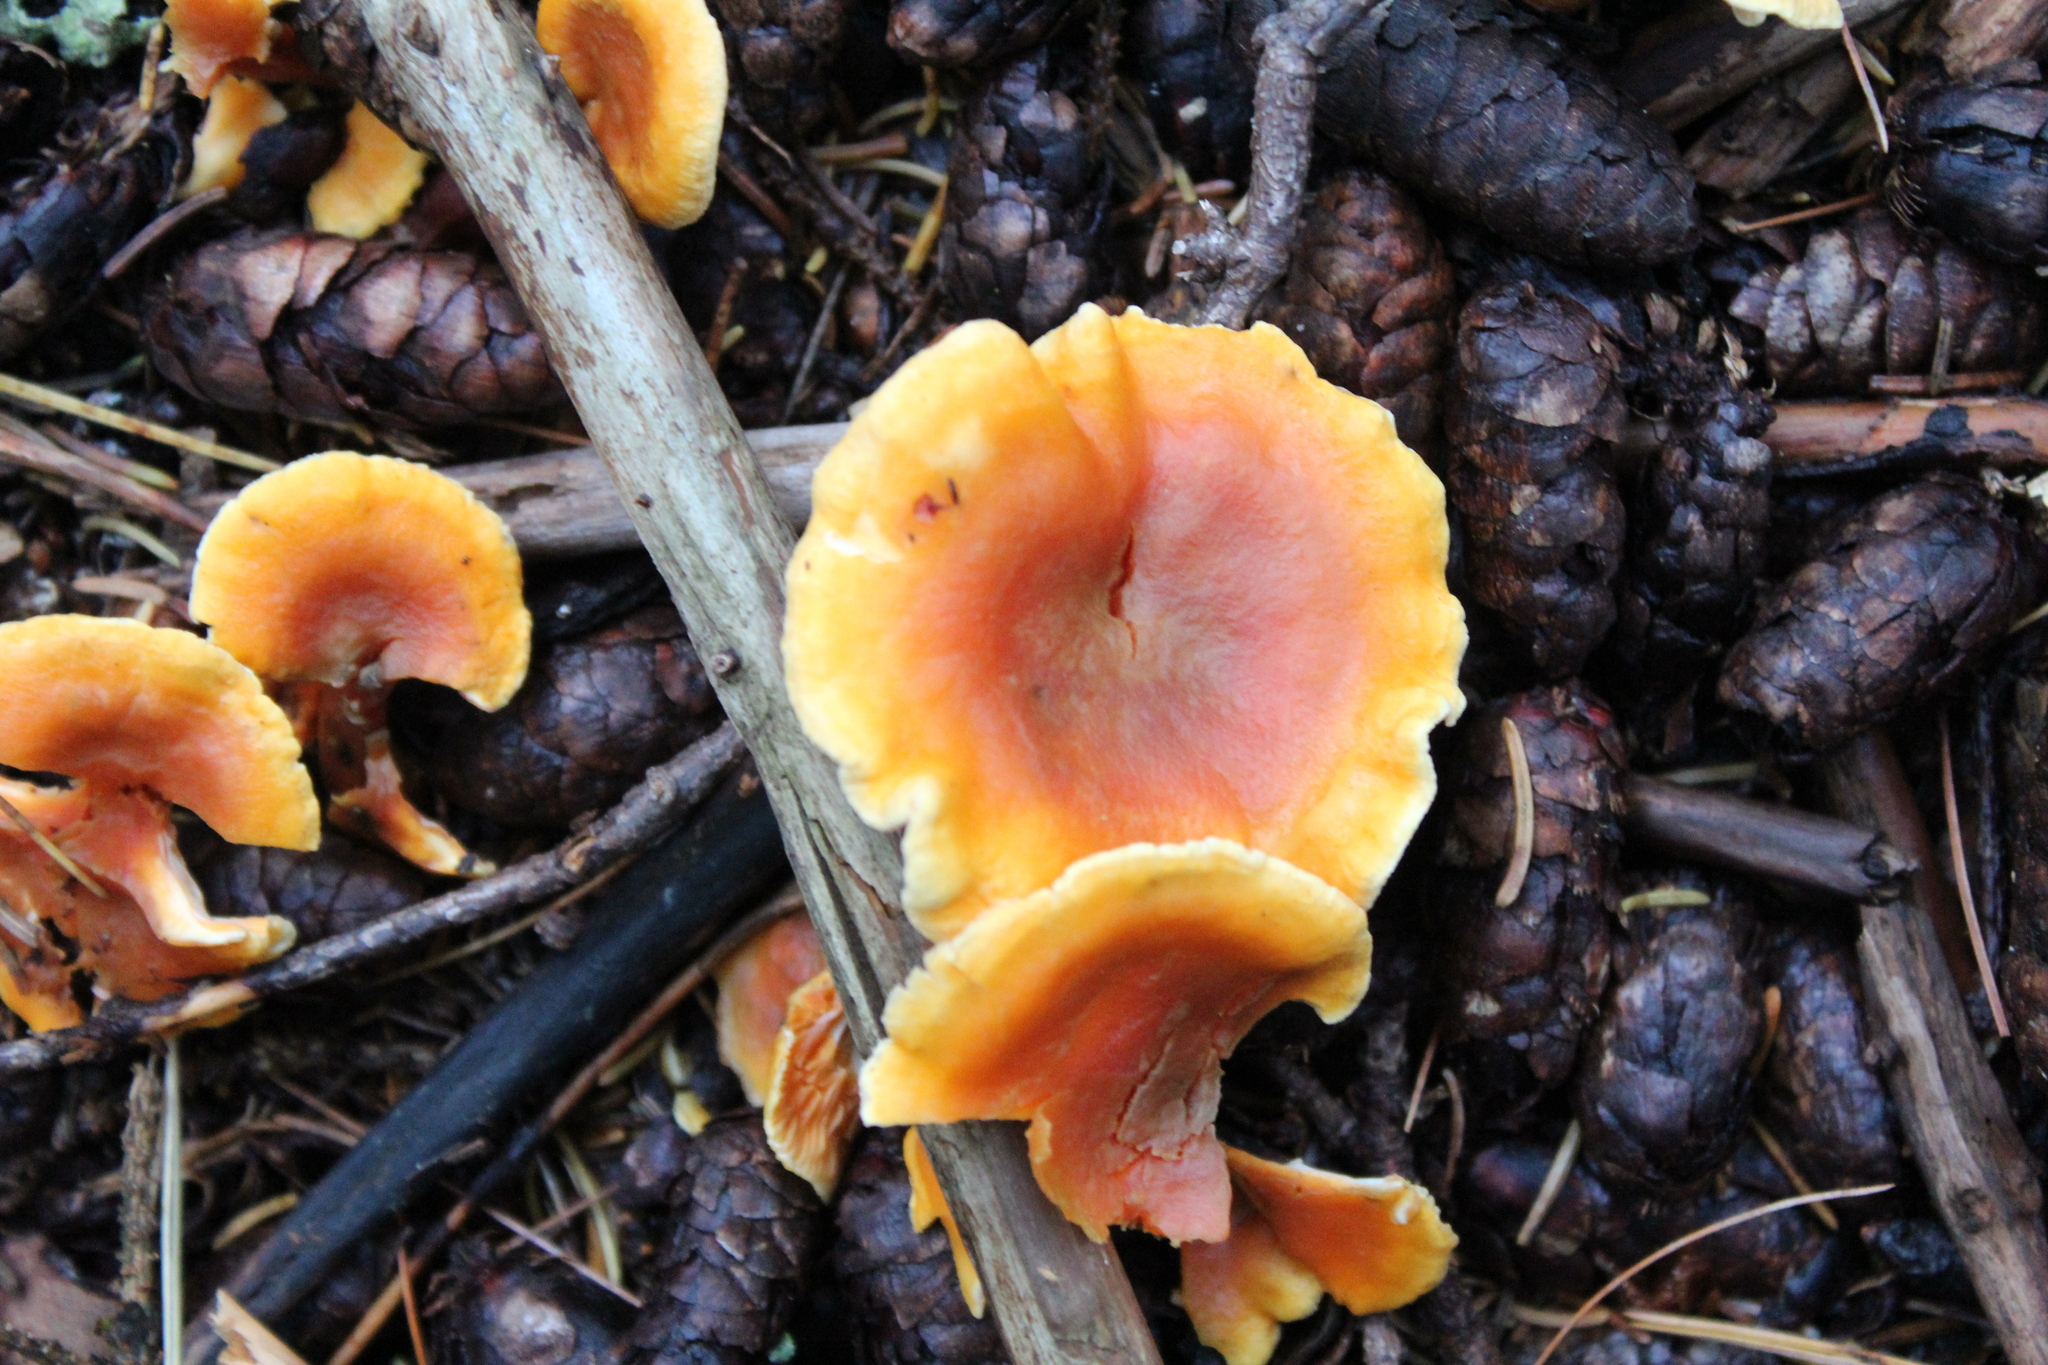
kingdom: Fungi
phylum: Basidiomycota
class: Agaricomycetes
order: Boletales
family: Hygrophoropsidaceae
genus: Hygrophoropsis
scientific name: Hygrophoropsis aurantiaca
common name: False chanterelle
